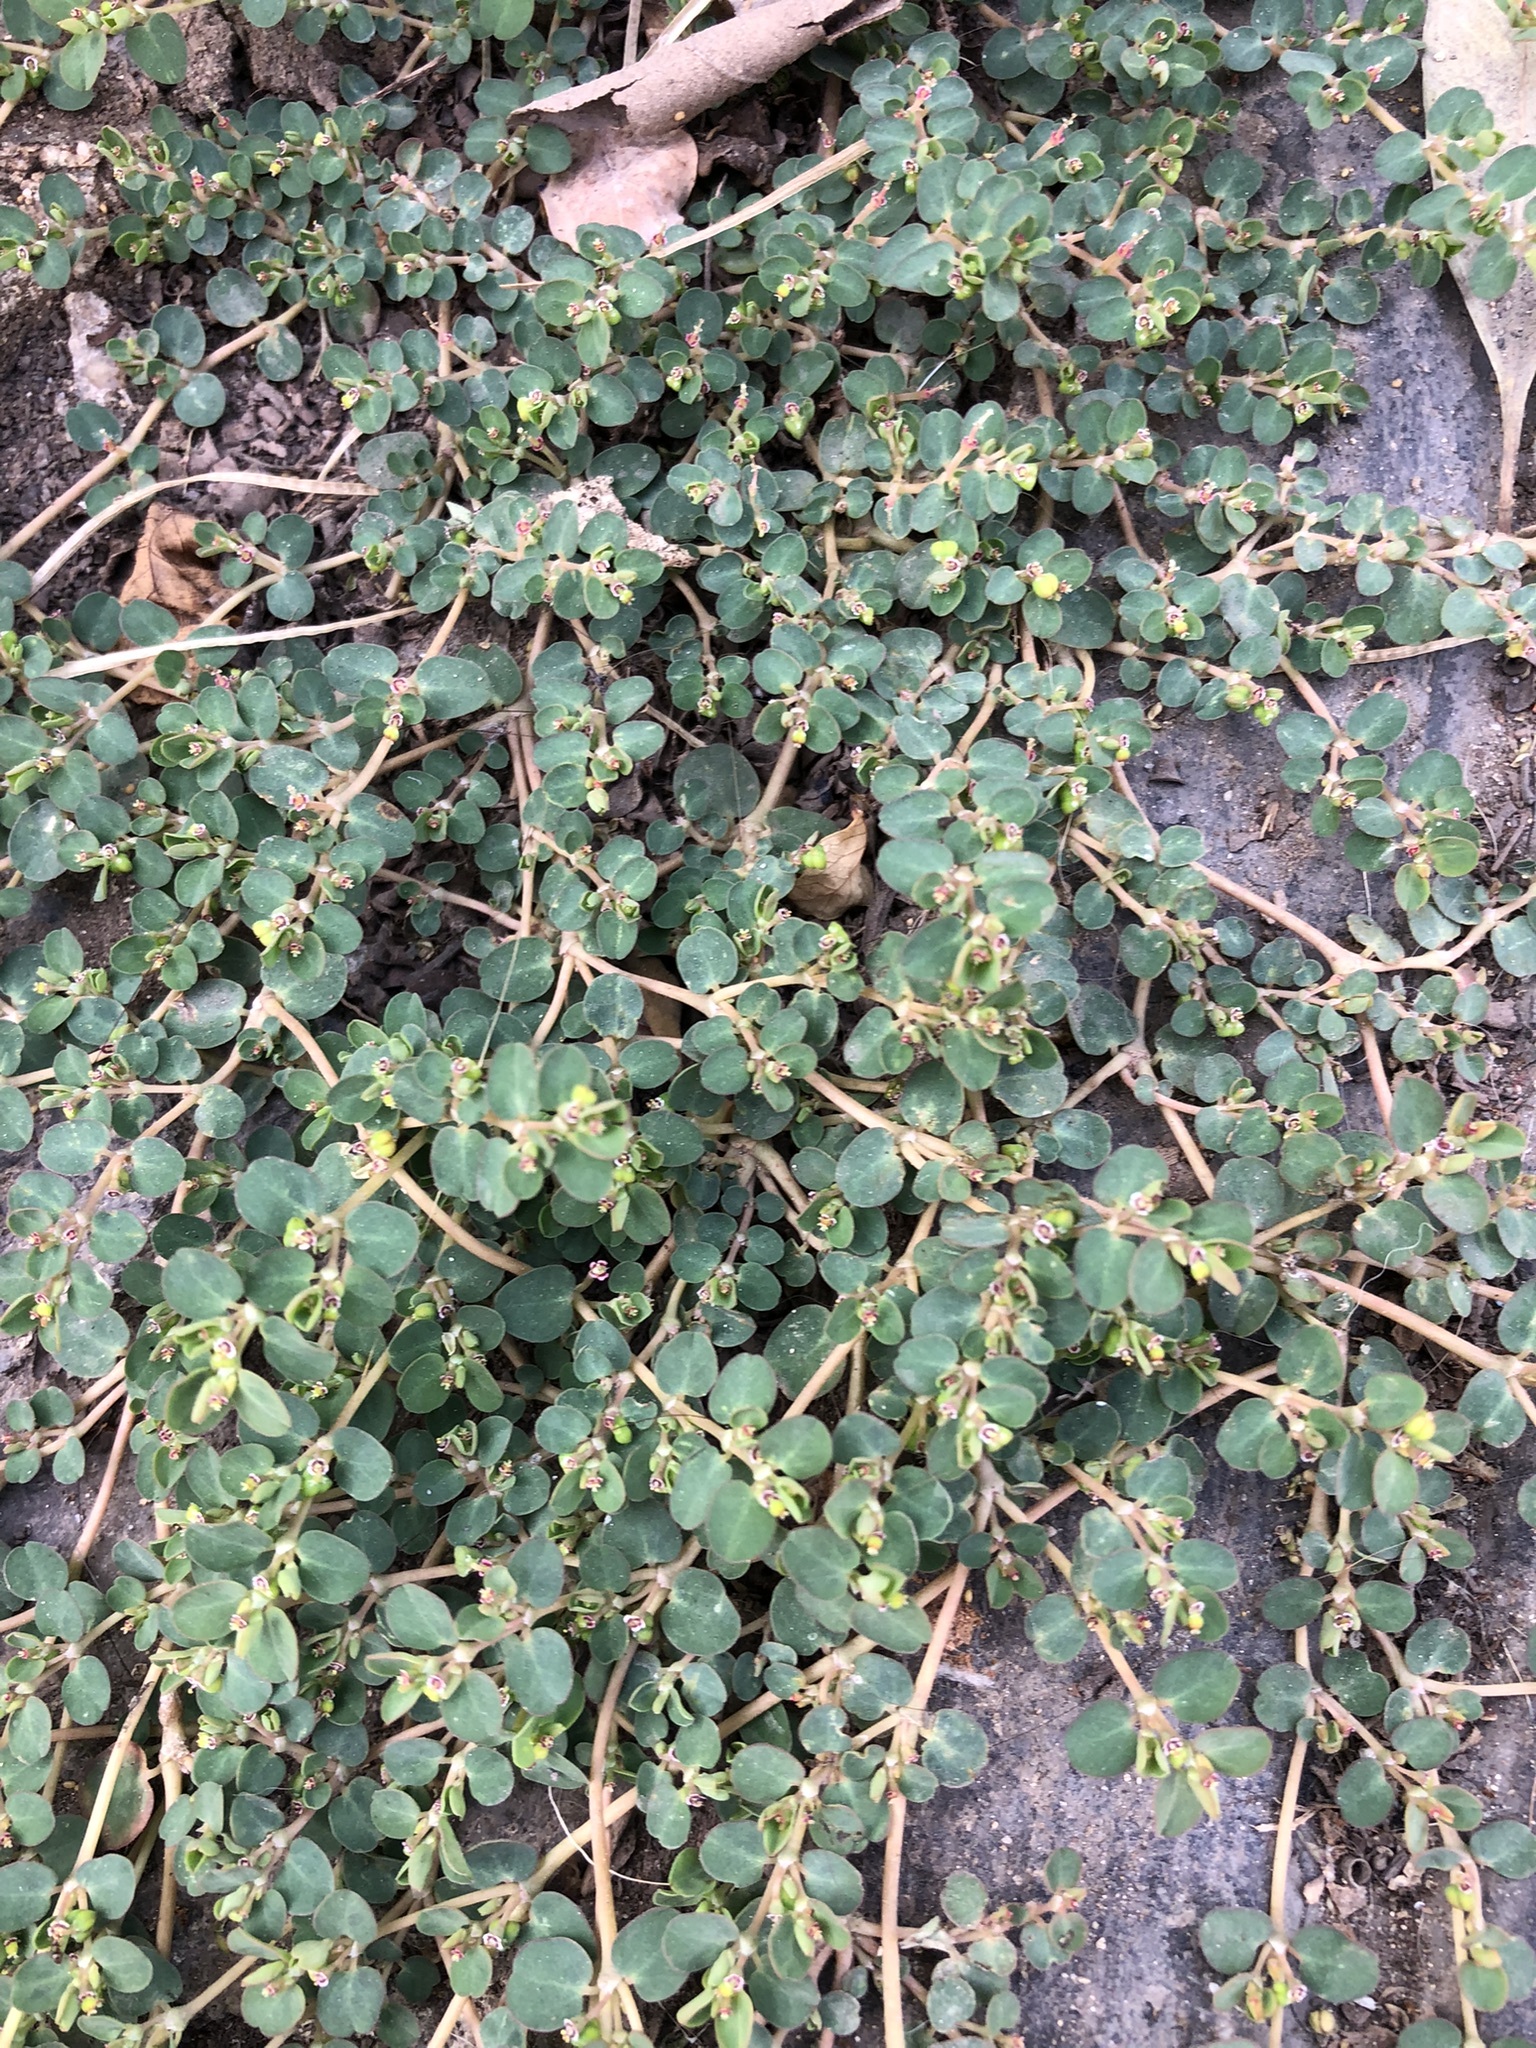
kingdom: Plantae
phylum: Tracheophyta
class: Magnoliopsida
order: Malpighiales
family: Euphorbiaceae
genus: Euphorbia
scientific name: Euphorbia serpens
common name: Matted sandmat
